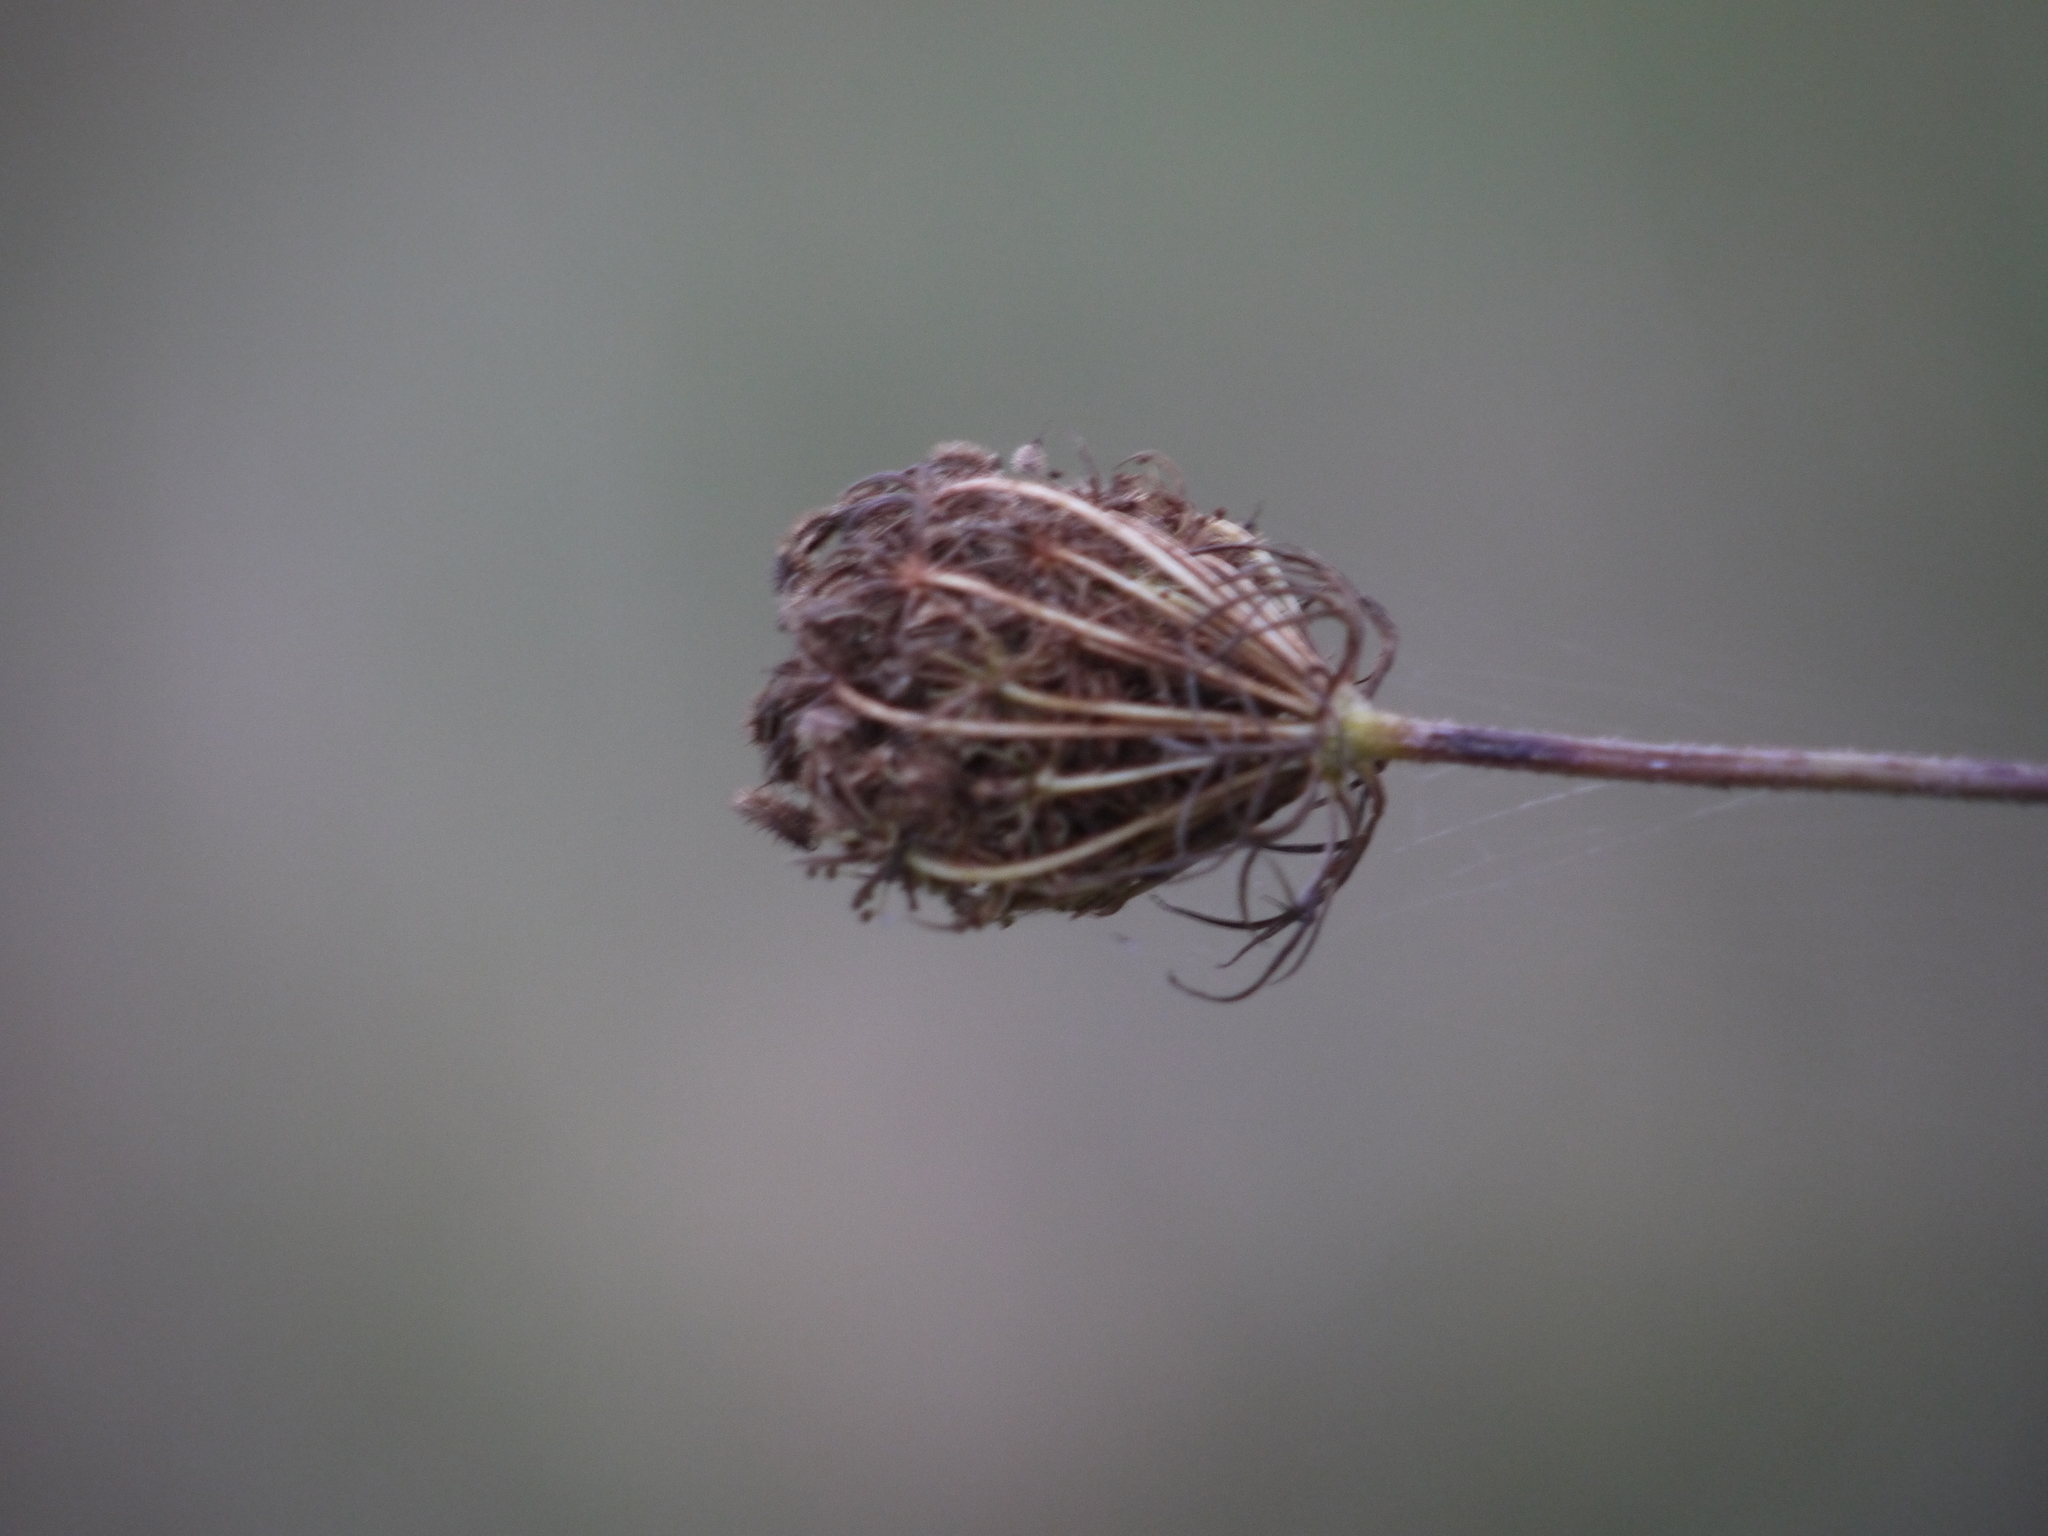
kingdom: Plantae
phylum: Tracheophyta
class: Magnoliopsida
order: Apiales
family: Apiaceae
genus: Daucus
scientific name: Daucus carota
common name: Wild carrot
